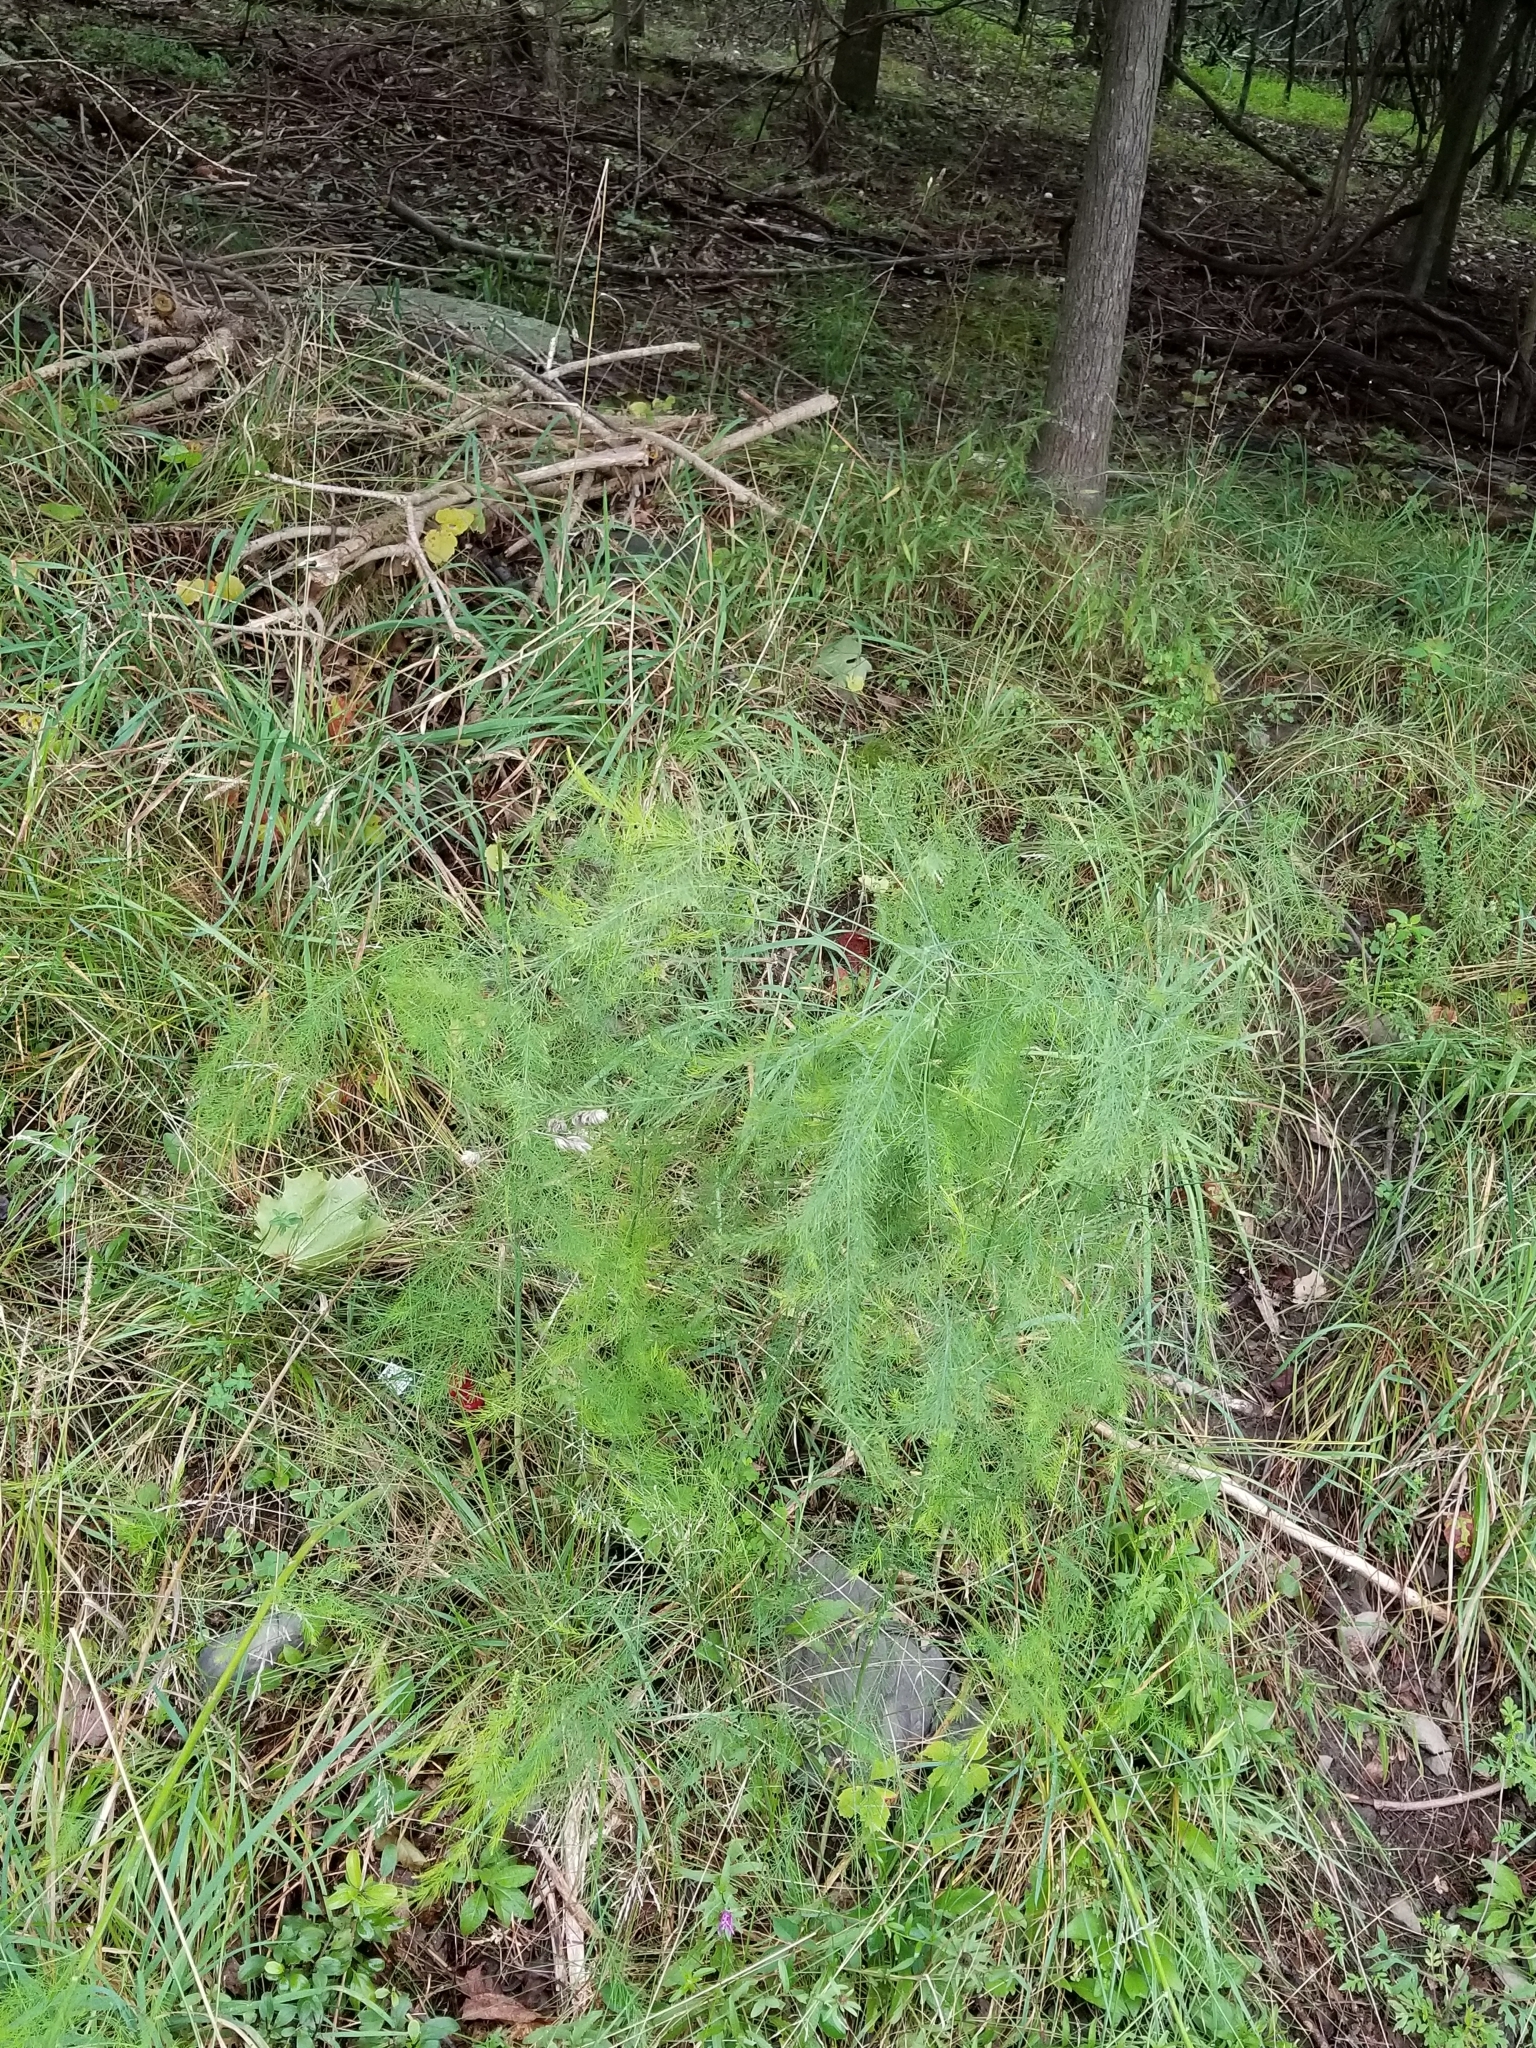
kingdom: Plantae
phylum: Tracheophyta
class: Liliopsida
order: Asparagales
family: Asparagaceae
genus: Asparagus
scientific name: Asparagus officinalis
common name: Garden asparagus
